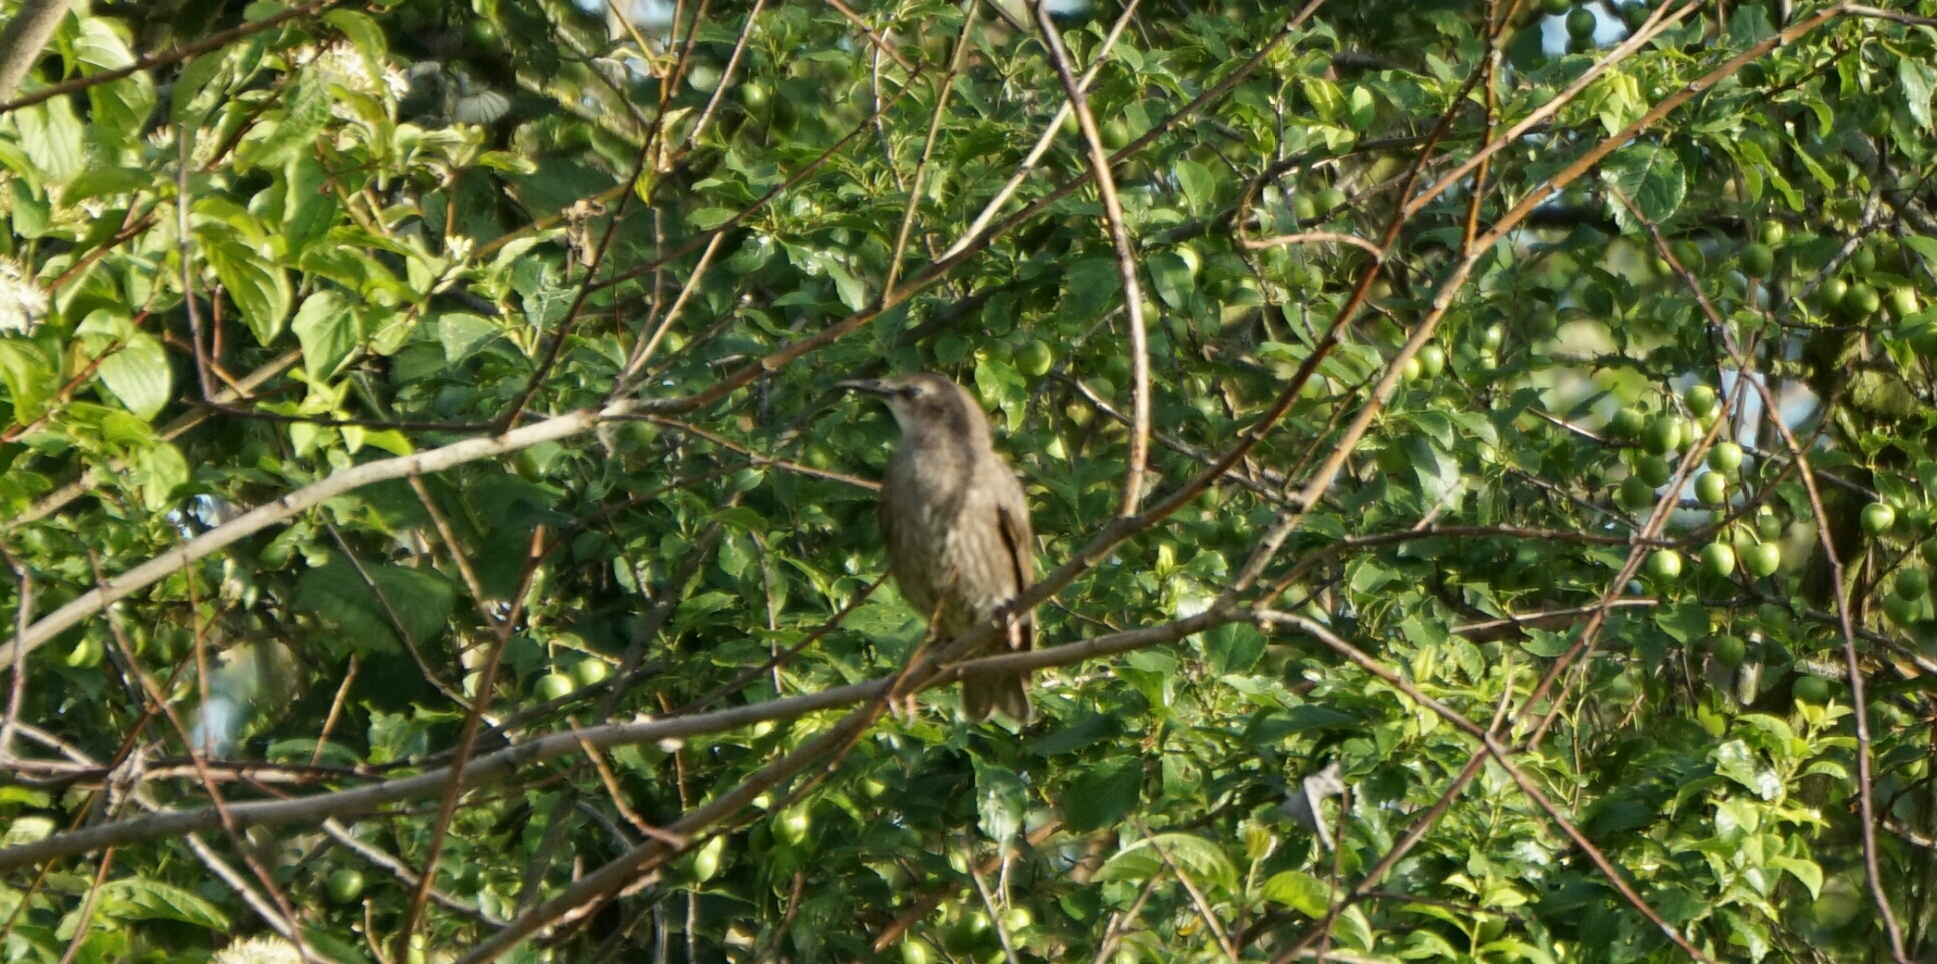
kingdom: Animalia
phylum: Chordata
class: Aves
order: Passeriformes
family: Sturnidae
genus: Sturnus
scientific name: Sturnus vulgaris
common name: Common starling
